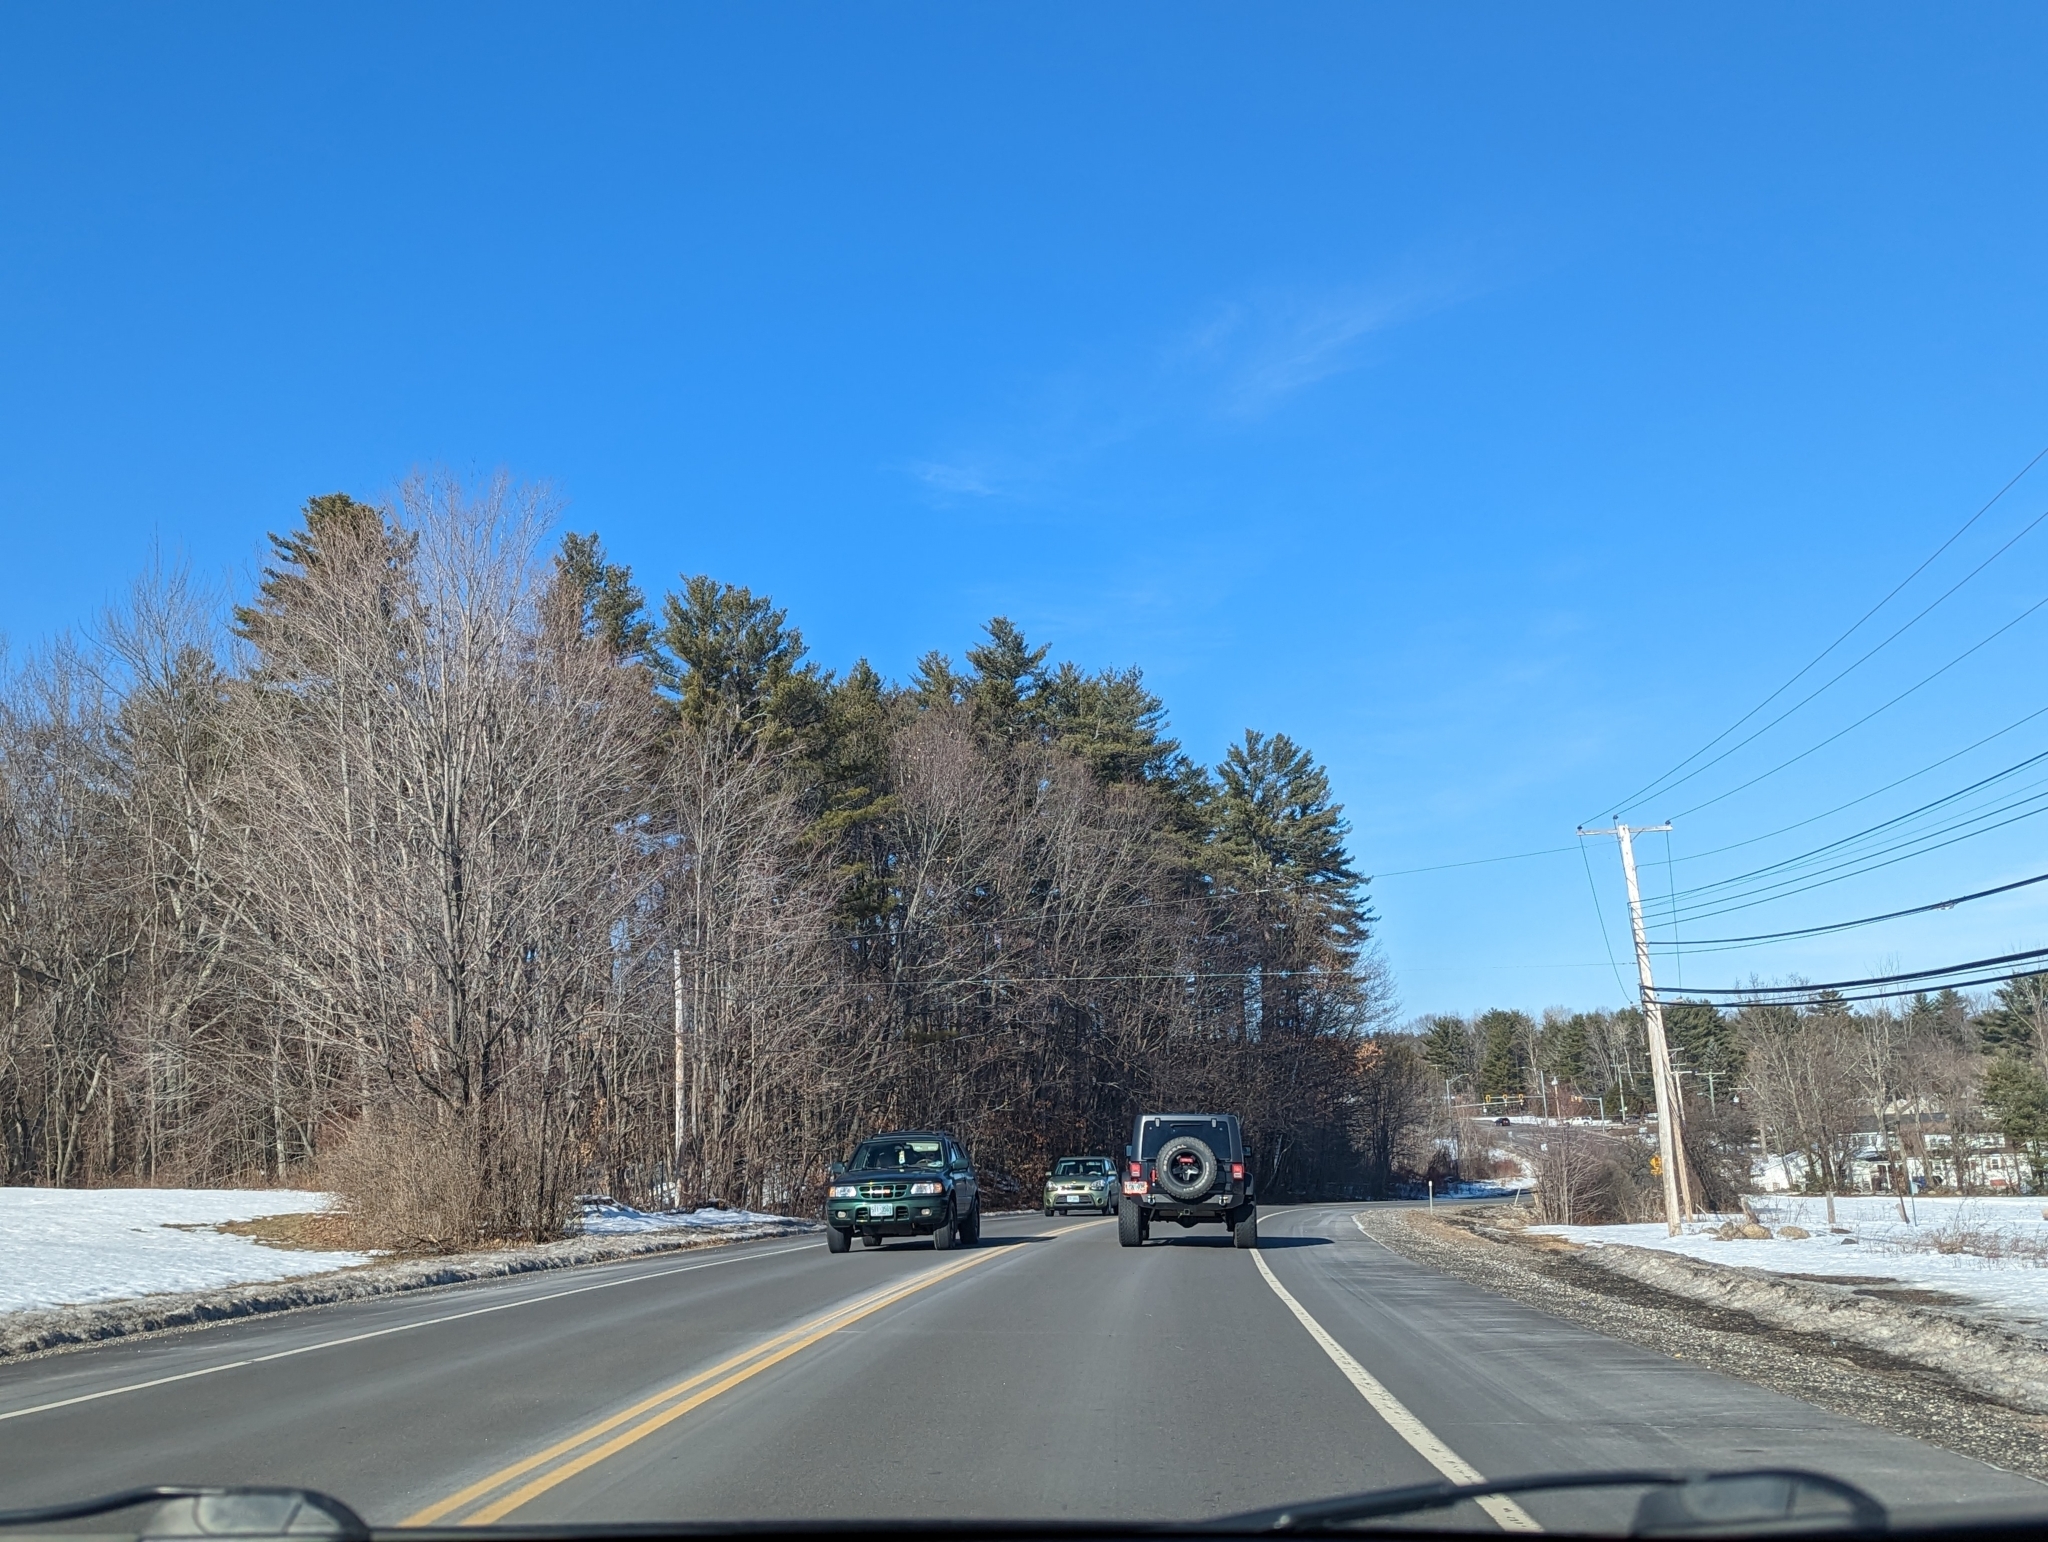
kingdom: Plantae
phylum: Tracheophyta
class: Pinopsida
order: Pinales
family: Pinaceae
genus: Pinus
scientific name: Pinus strobus
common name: Weymouth pine
